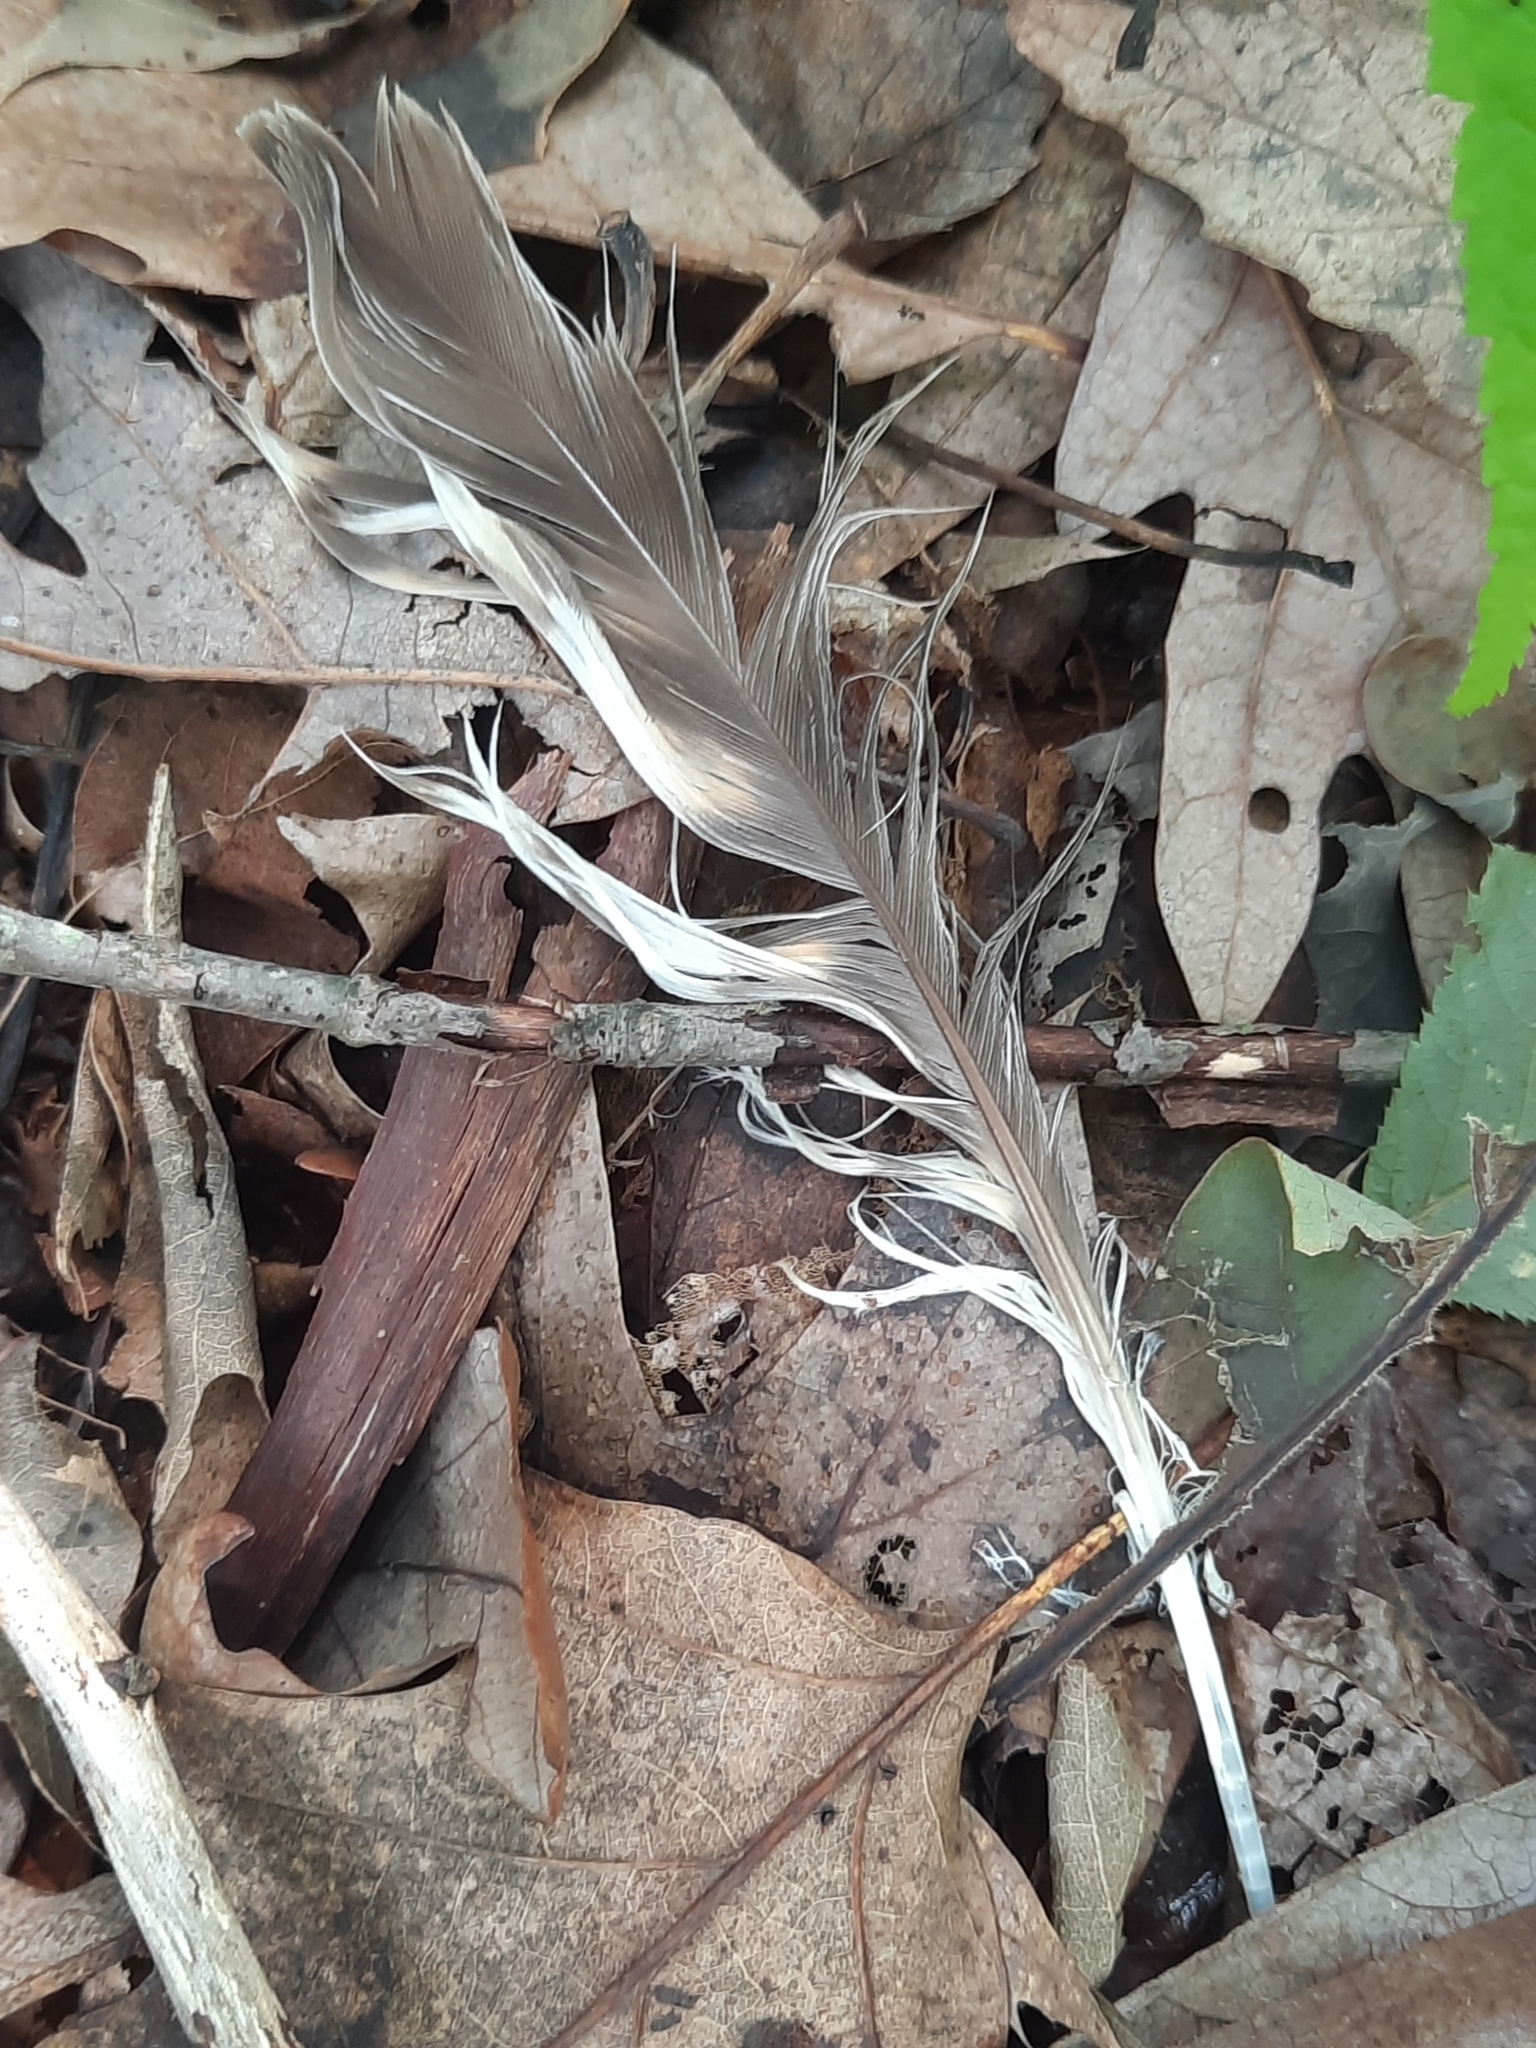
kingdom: Animalia
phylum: Chordata
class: Aves
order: Accipitriformes
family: Accipitridae
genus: Buteo
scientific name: Buteo lineatus
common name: Red-shouldered hawk
